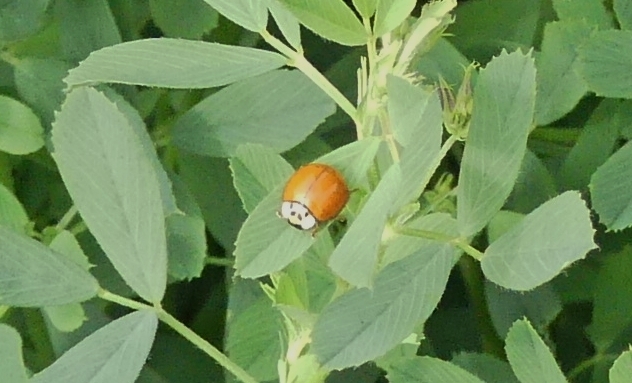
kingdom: Animalia
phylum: Arthropoda
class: Insecta
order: Coleoptera
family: Coccinellidae
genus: Harmonia
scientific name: Harmonia axyridis
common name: Harlequin ladybird
